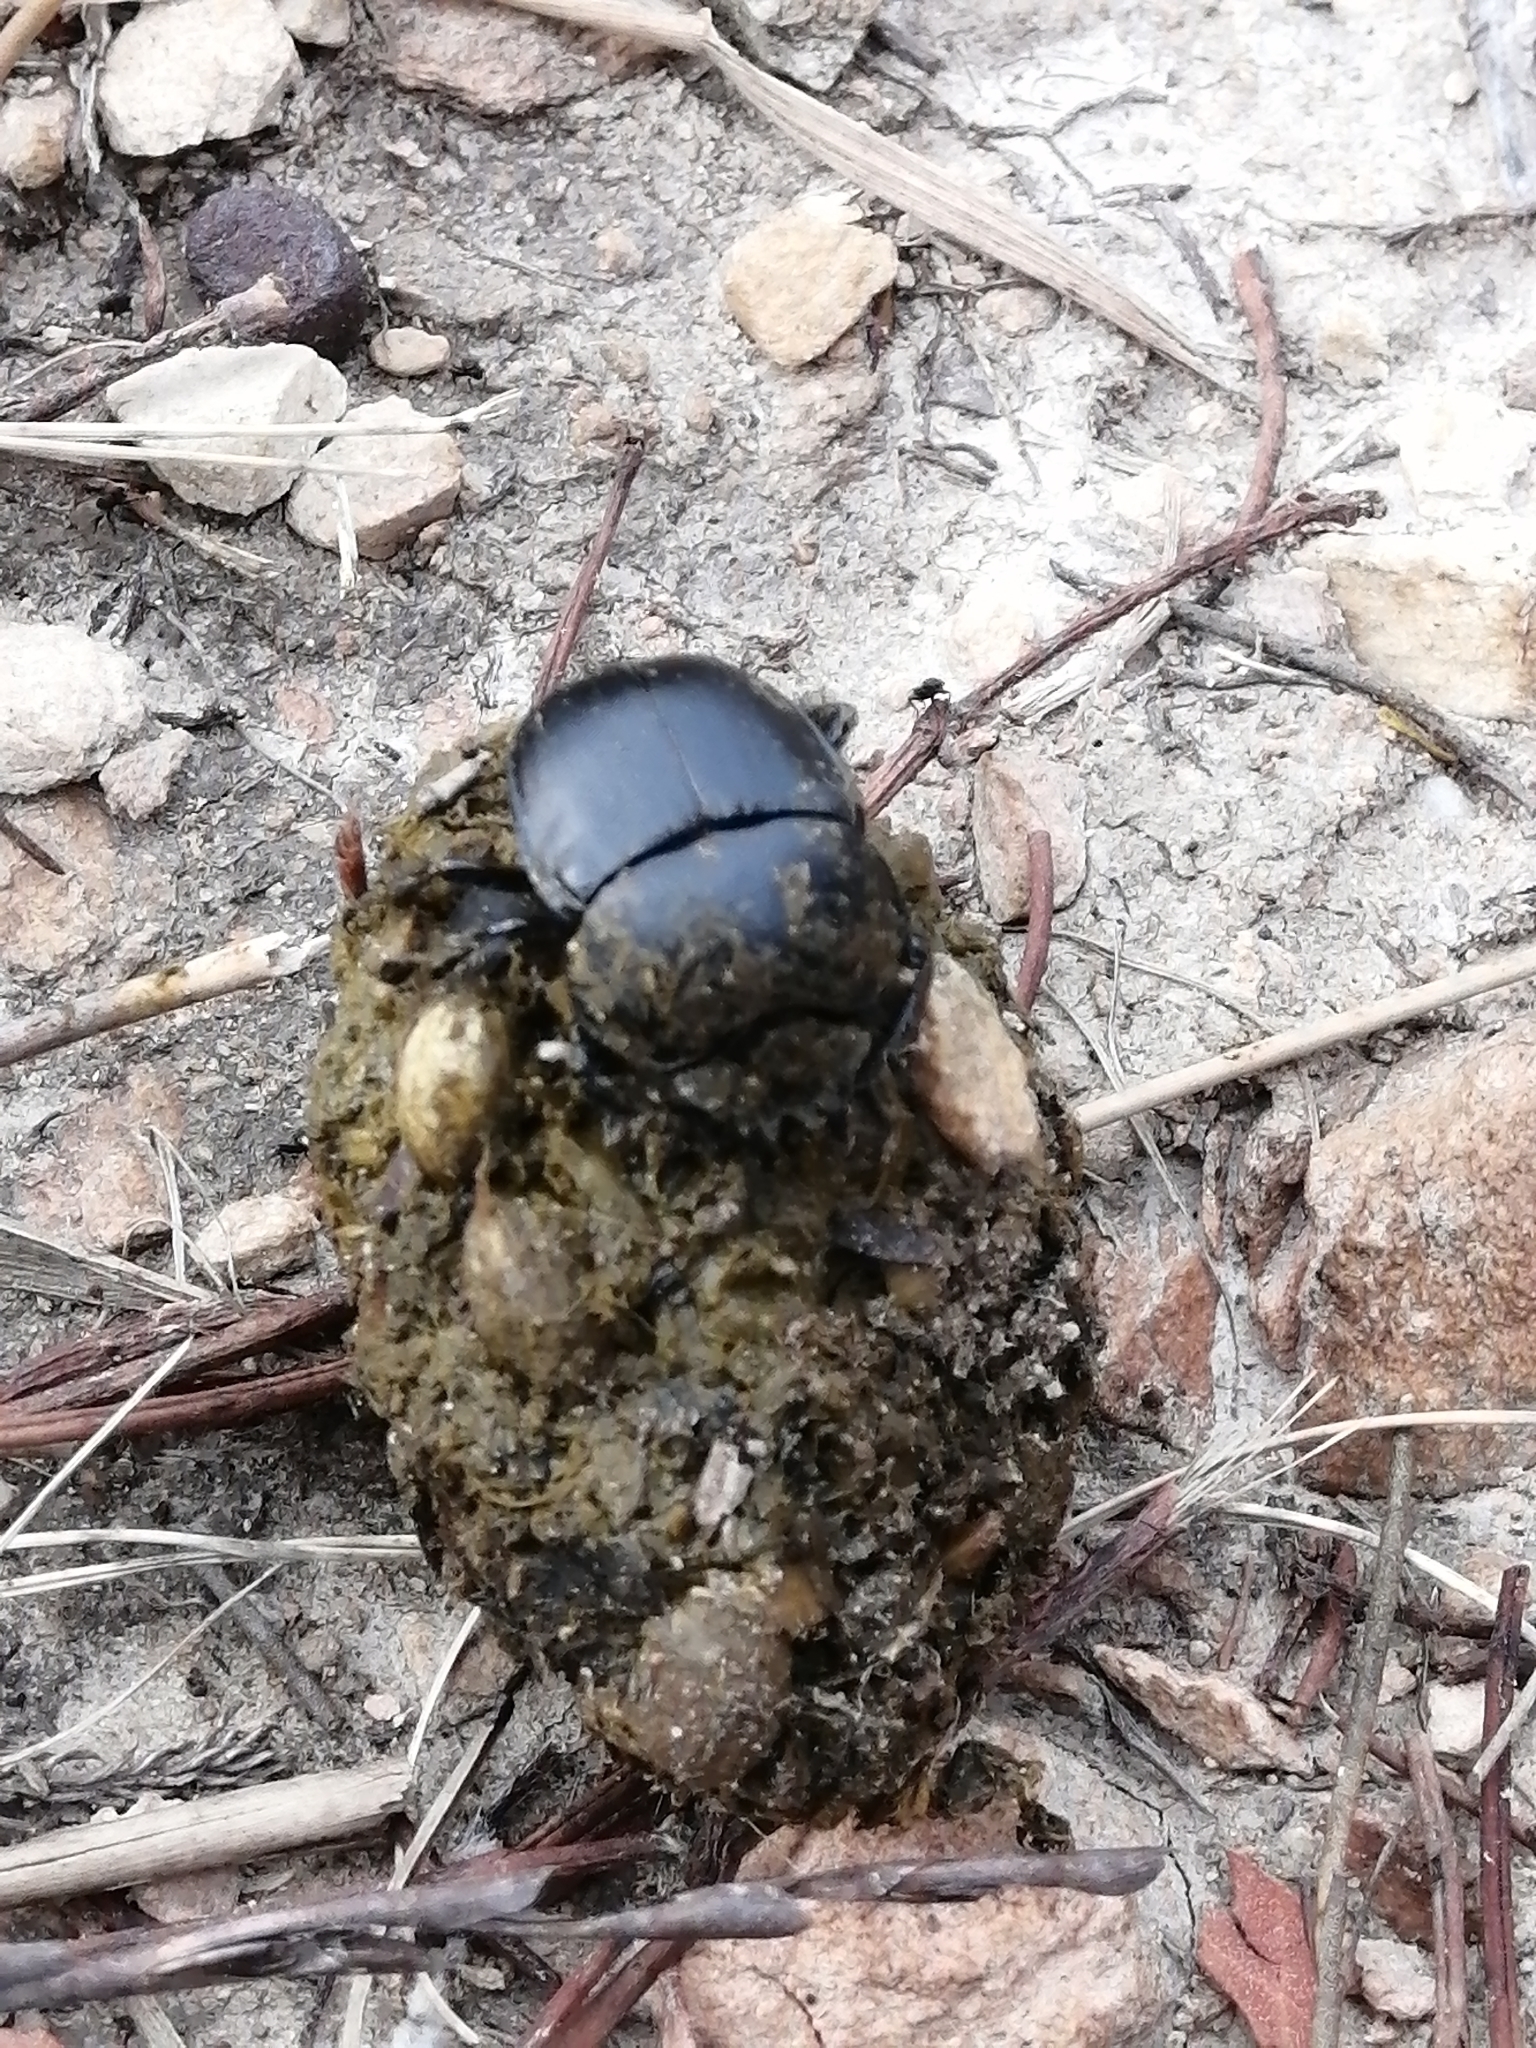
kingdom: Animalia
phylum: Arthropoda
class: Insecta
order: Coleoptera
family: Scarabaeidae
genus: Scarabaeus
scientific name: Scarabaeus convexus
